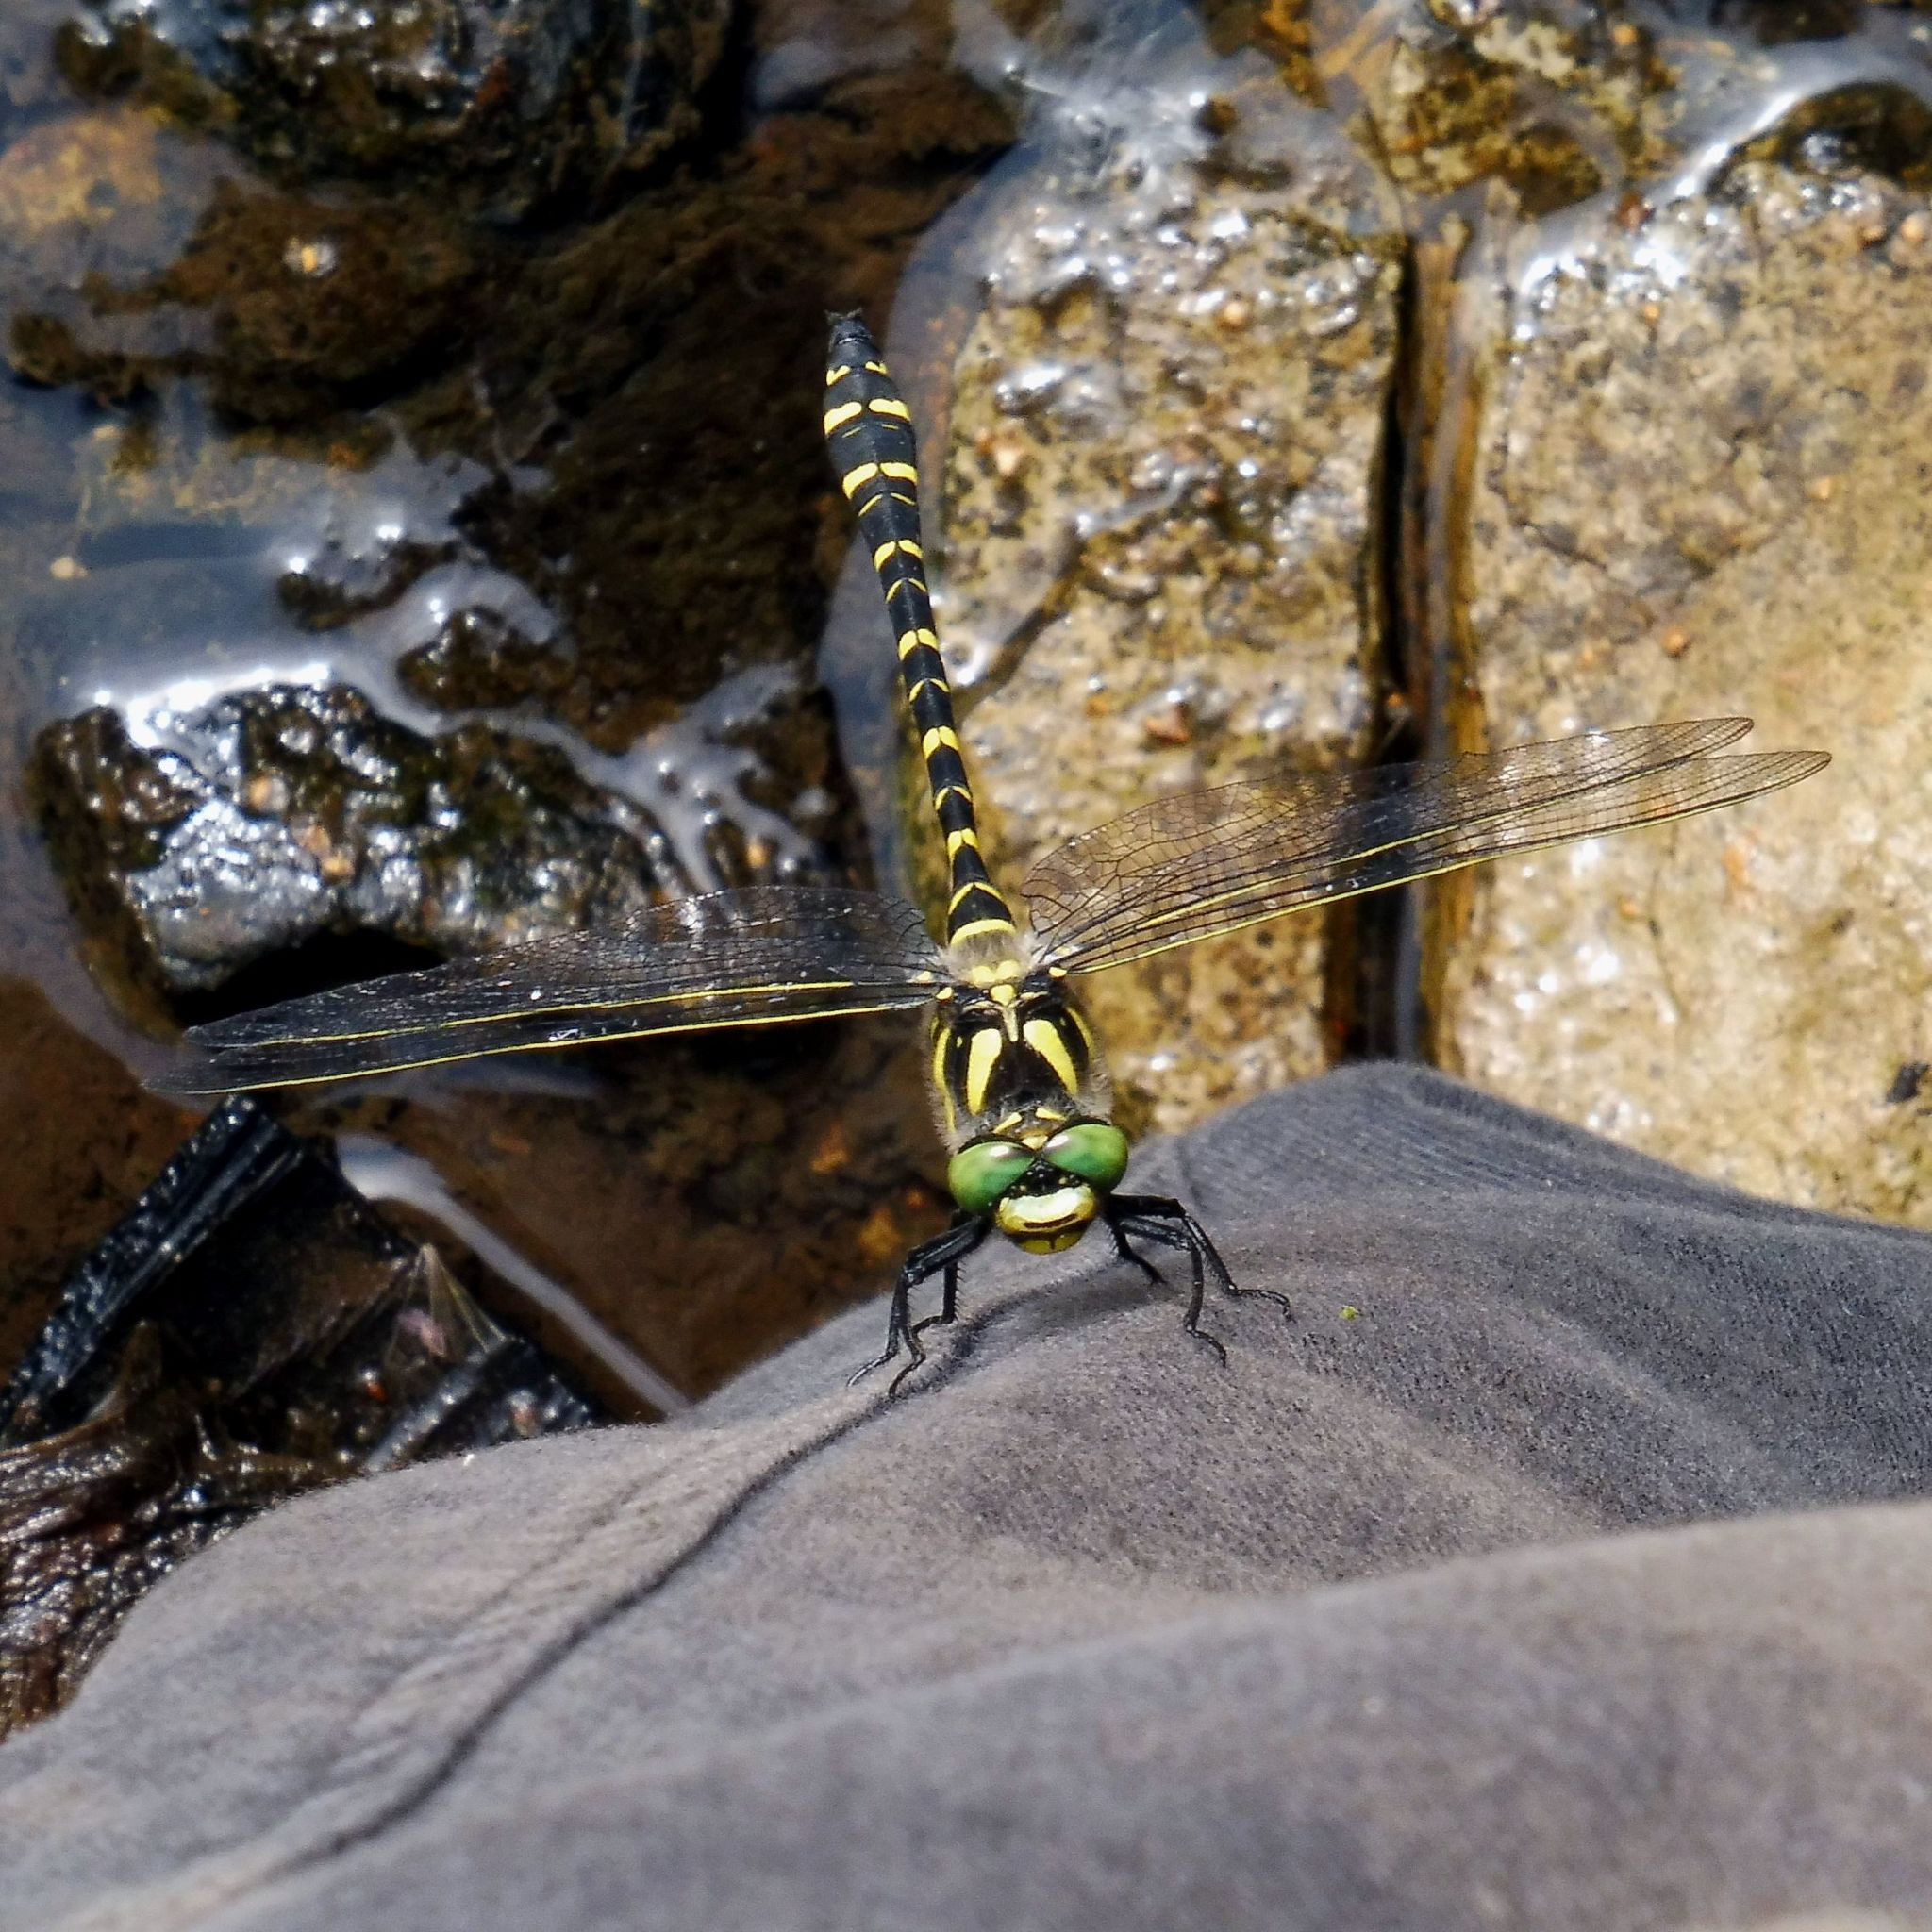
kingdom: Animalia
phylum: Arthropoda
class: Insecta
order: Odonata
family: Cordulegastridae
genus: Cordulegaster
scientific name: Cordulegaster boltonii
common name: Golden-ringed dragonfly
